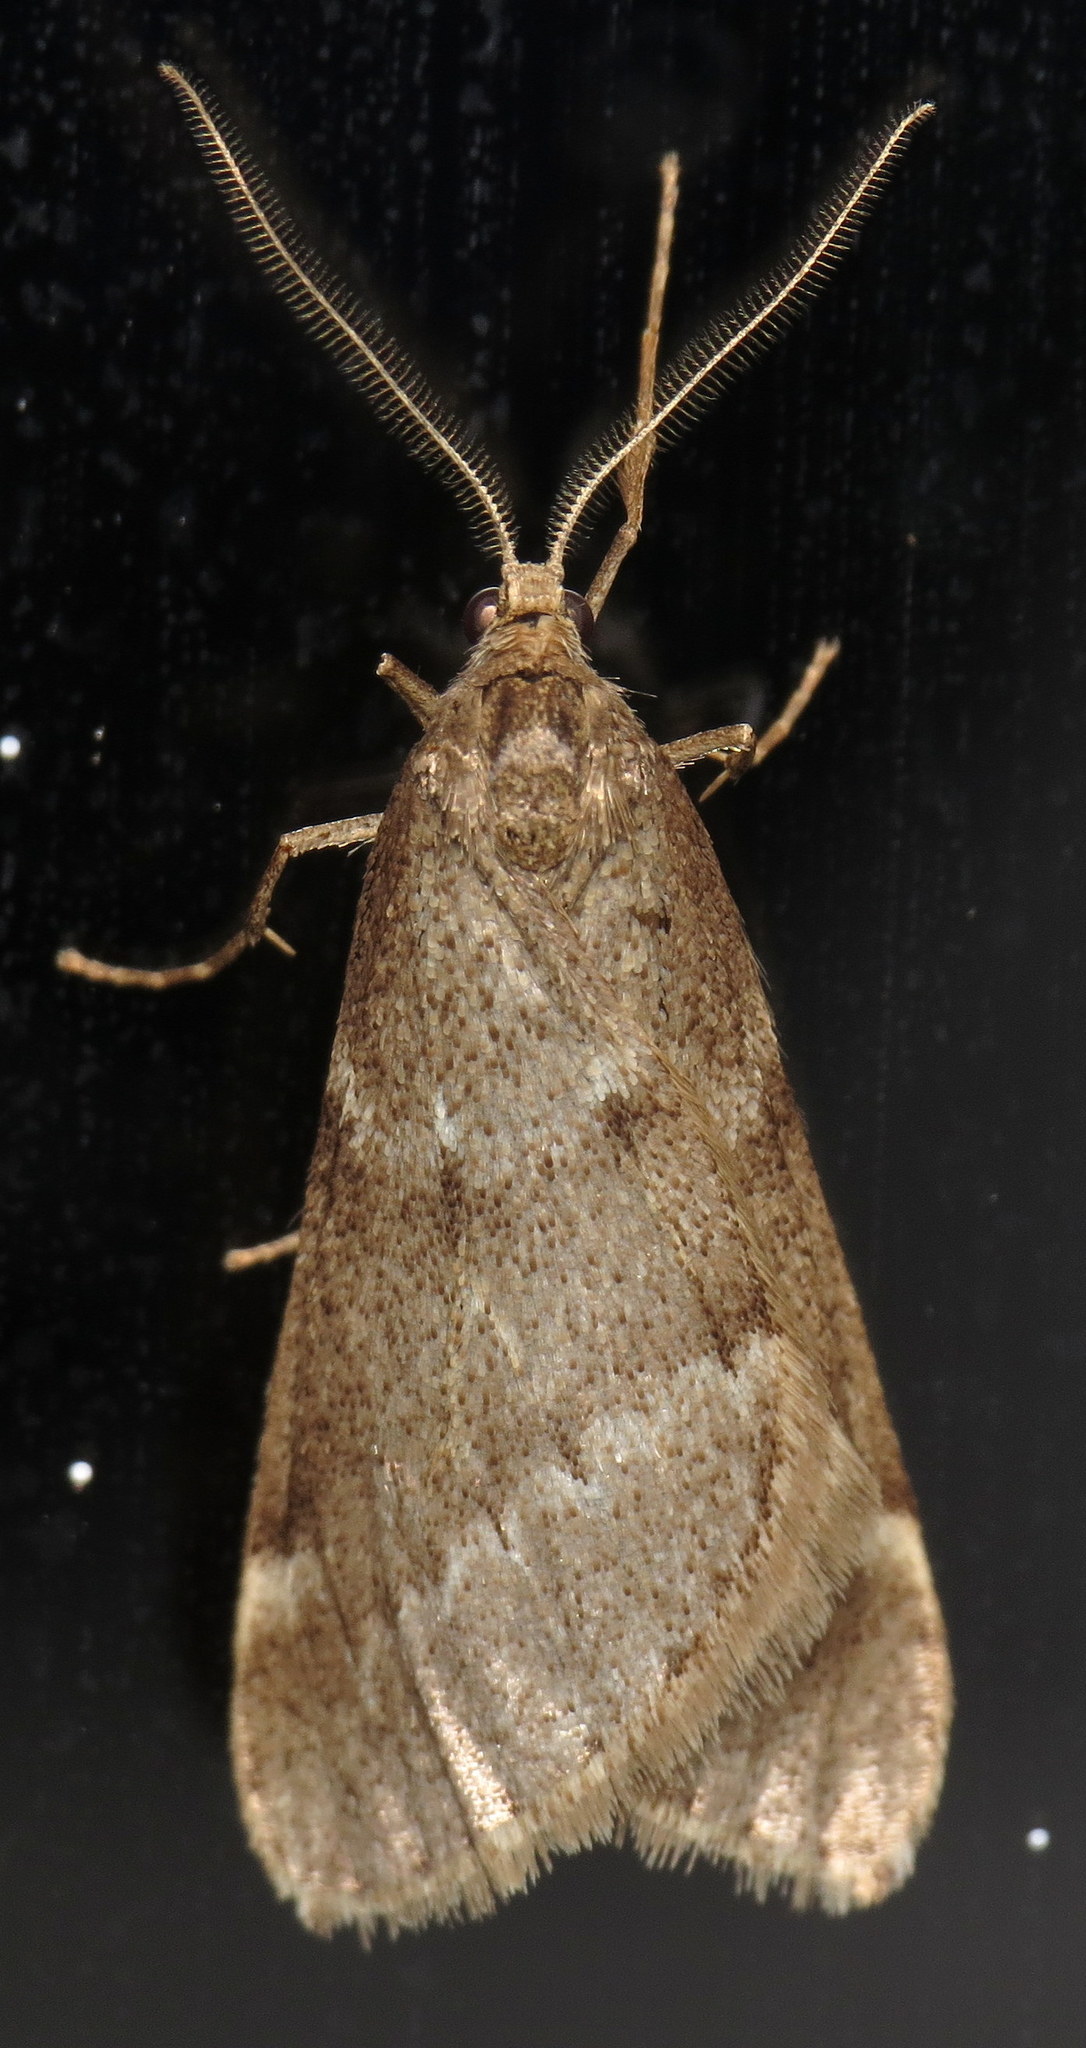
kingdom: Animalia
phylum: Arthropoda
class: Insecta
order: Lepidoptera
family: Geometridae
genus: Alsophila
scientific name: Alsophila pometaria
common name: Fall cankerworm
